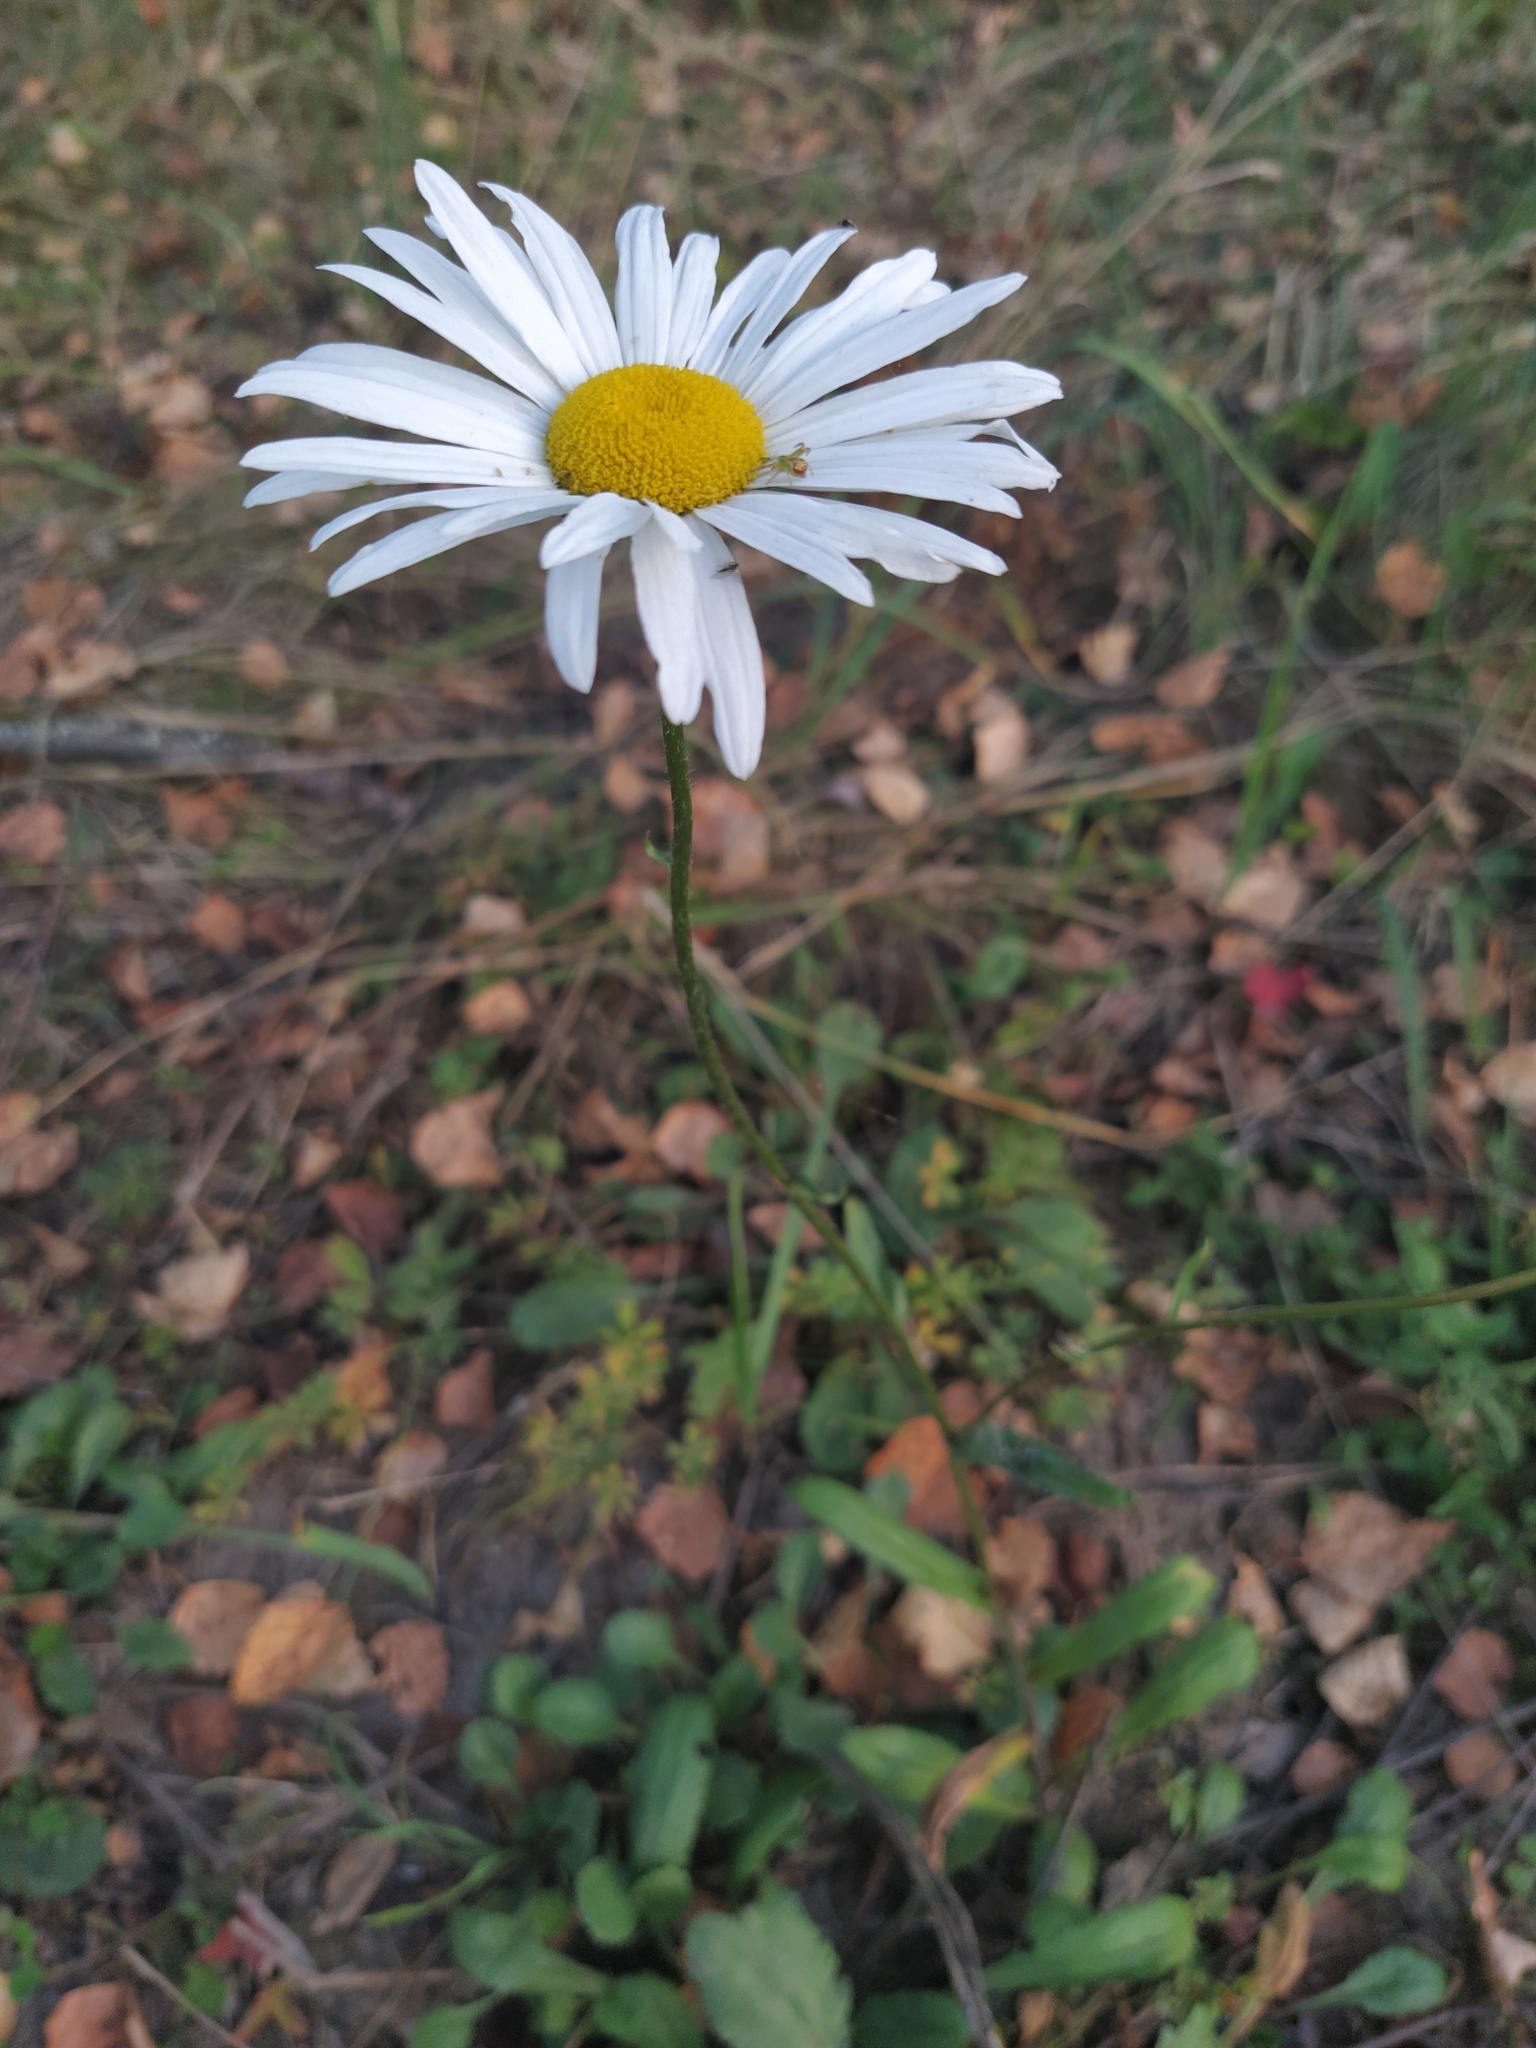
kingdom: Plantae
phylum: Tracheophyta
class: Magnoliopsida
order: Asterales
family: Asteraceae
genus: Leucanthemum
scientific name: Leucanthemum vulgare
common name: Oxeye daisy
